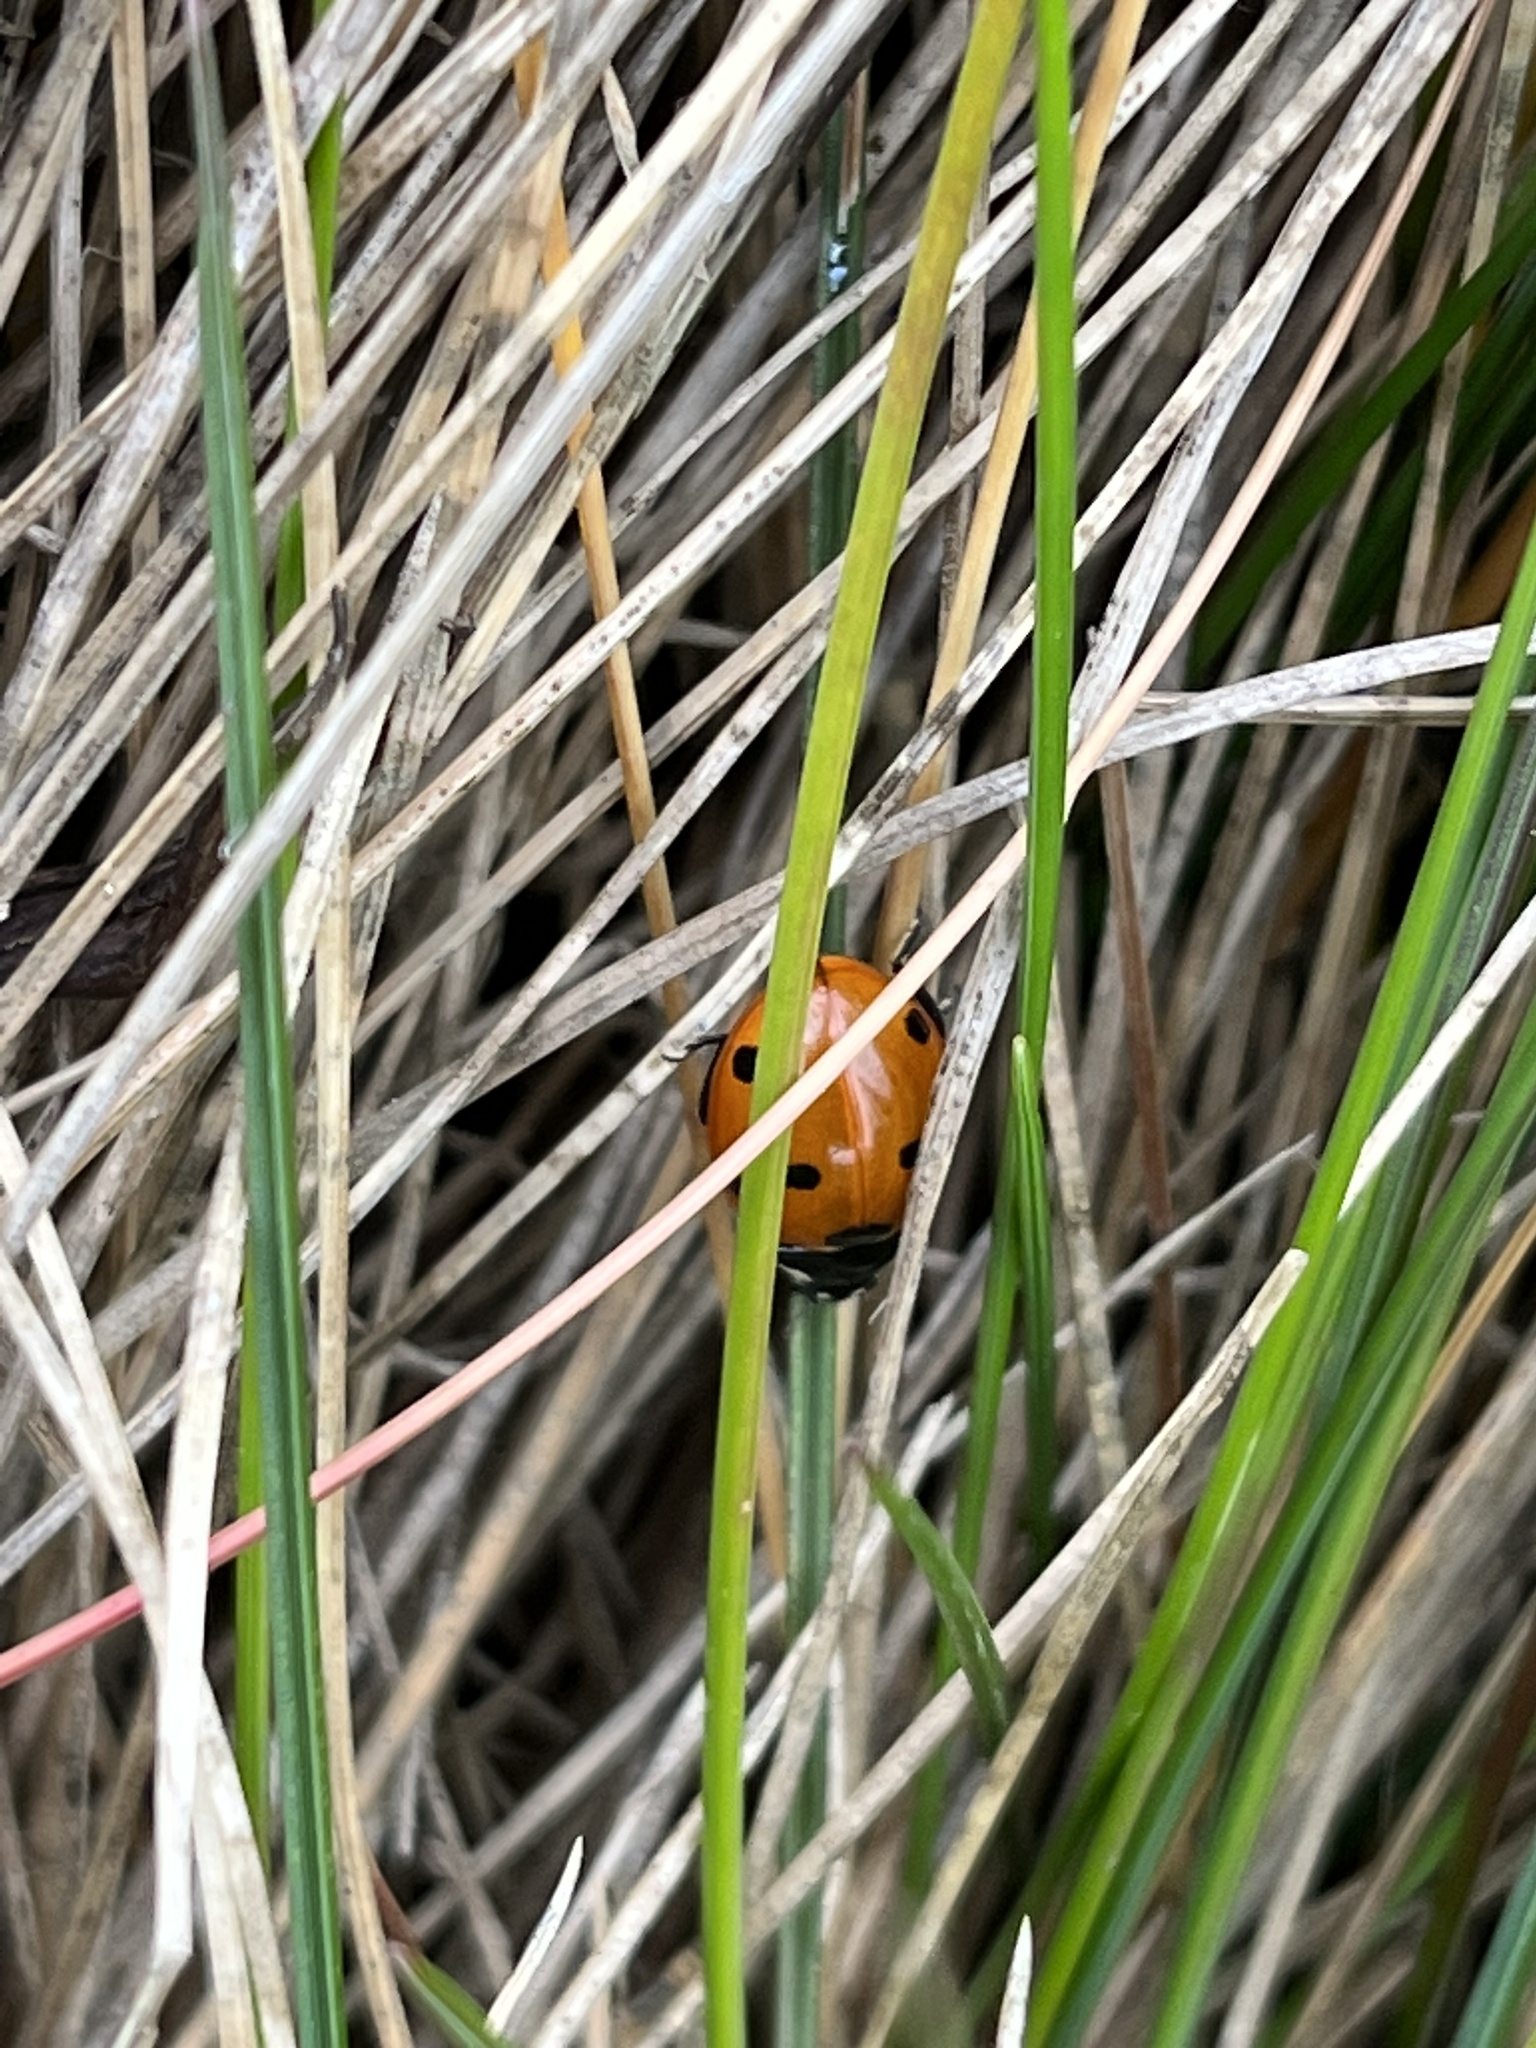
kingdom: Animalia
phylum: Arthropoda
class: Insecta
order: Coleoptera
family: Coccinellidae
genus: Coccinella
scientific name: Coccinella septempunctata
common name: Sevenspotted lady beetle
